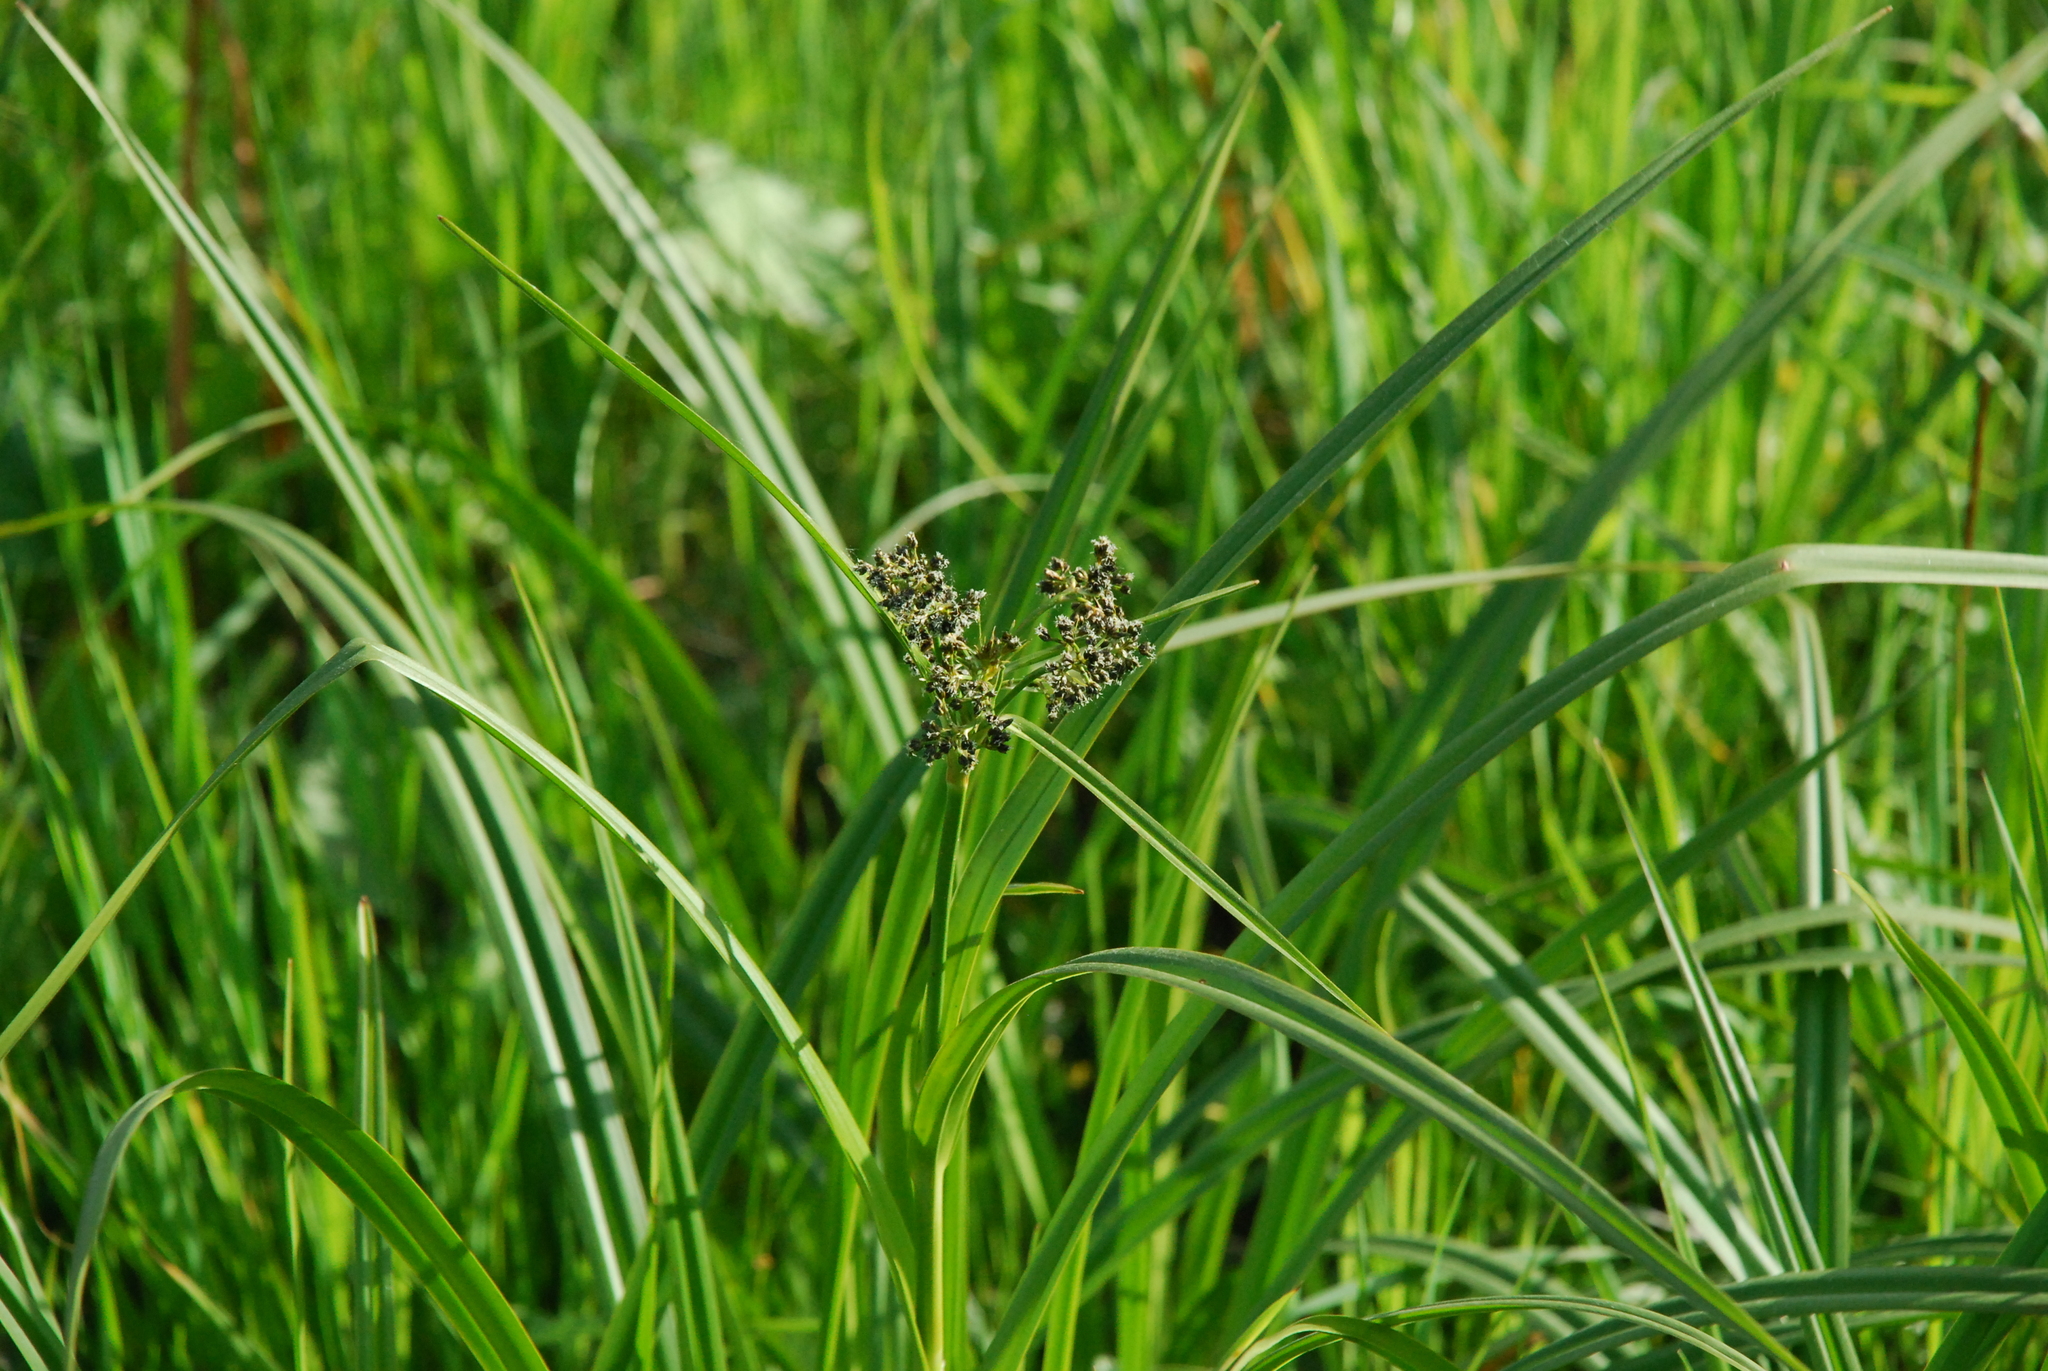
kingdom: Plantae
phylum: Tracheophyta
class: Liliopsida
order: Poales
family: Cyperaceae
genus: Scirpus
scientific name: Scirpus sylvaticus
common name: Wood club-rush
